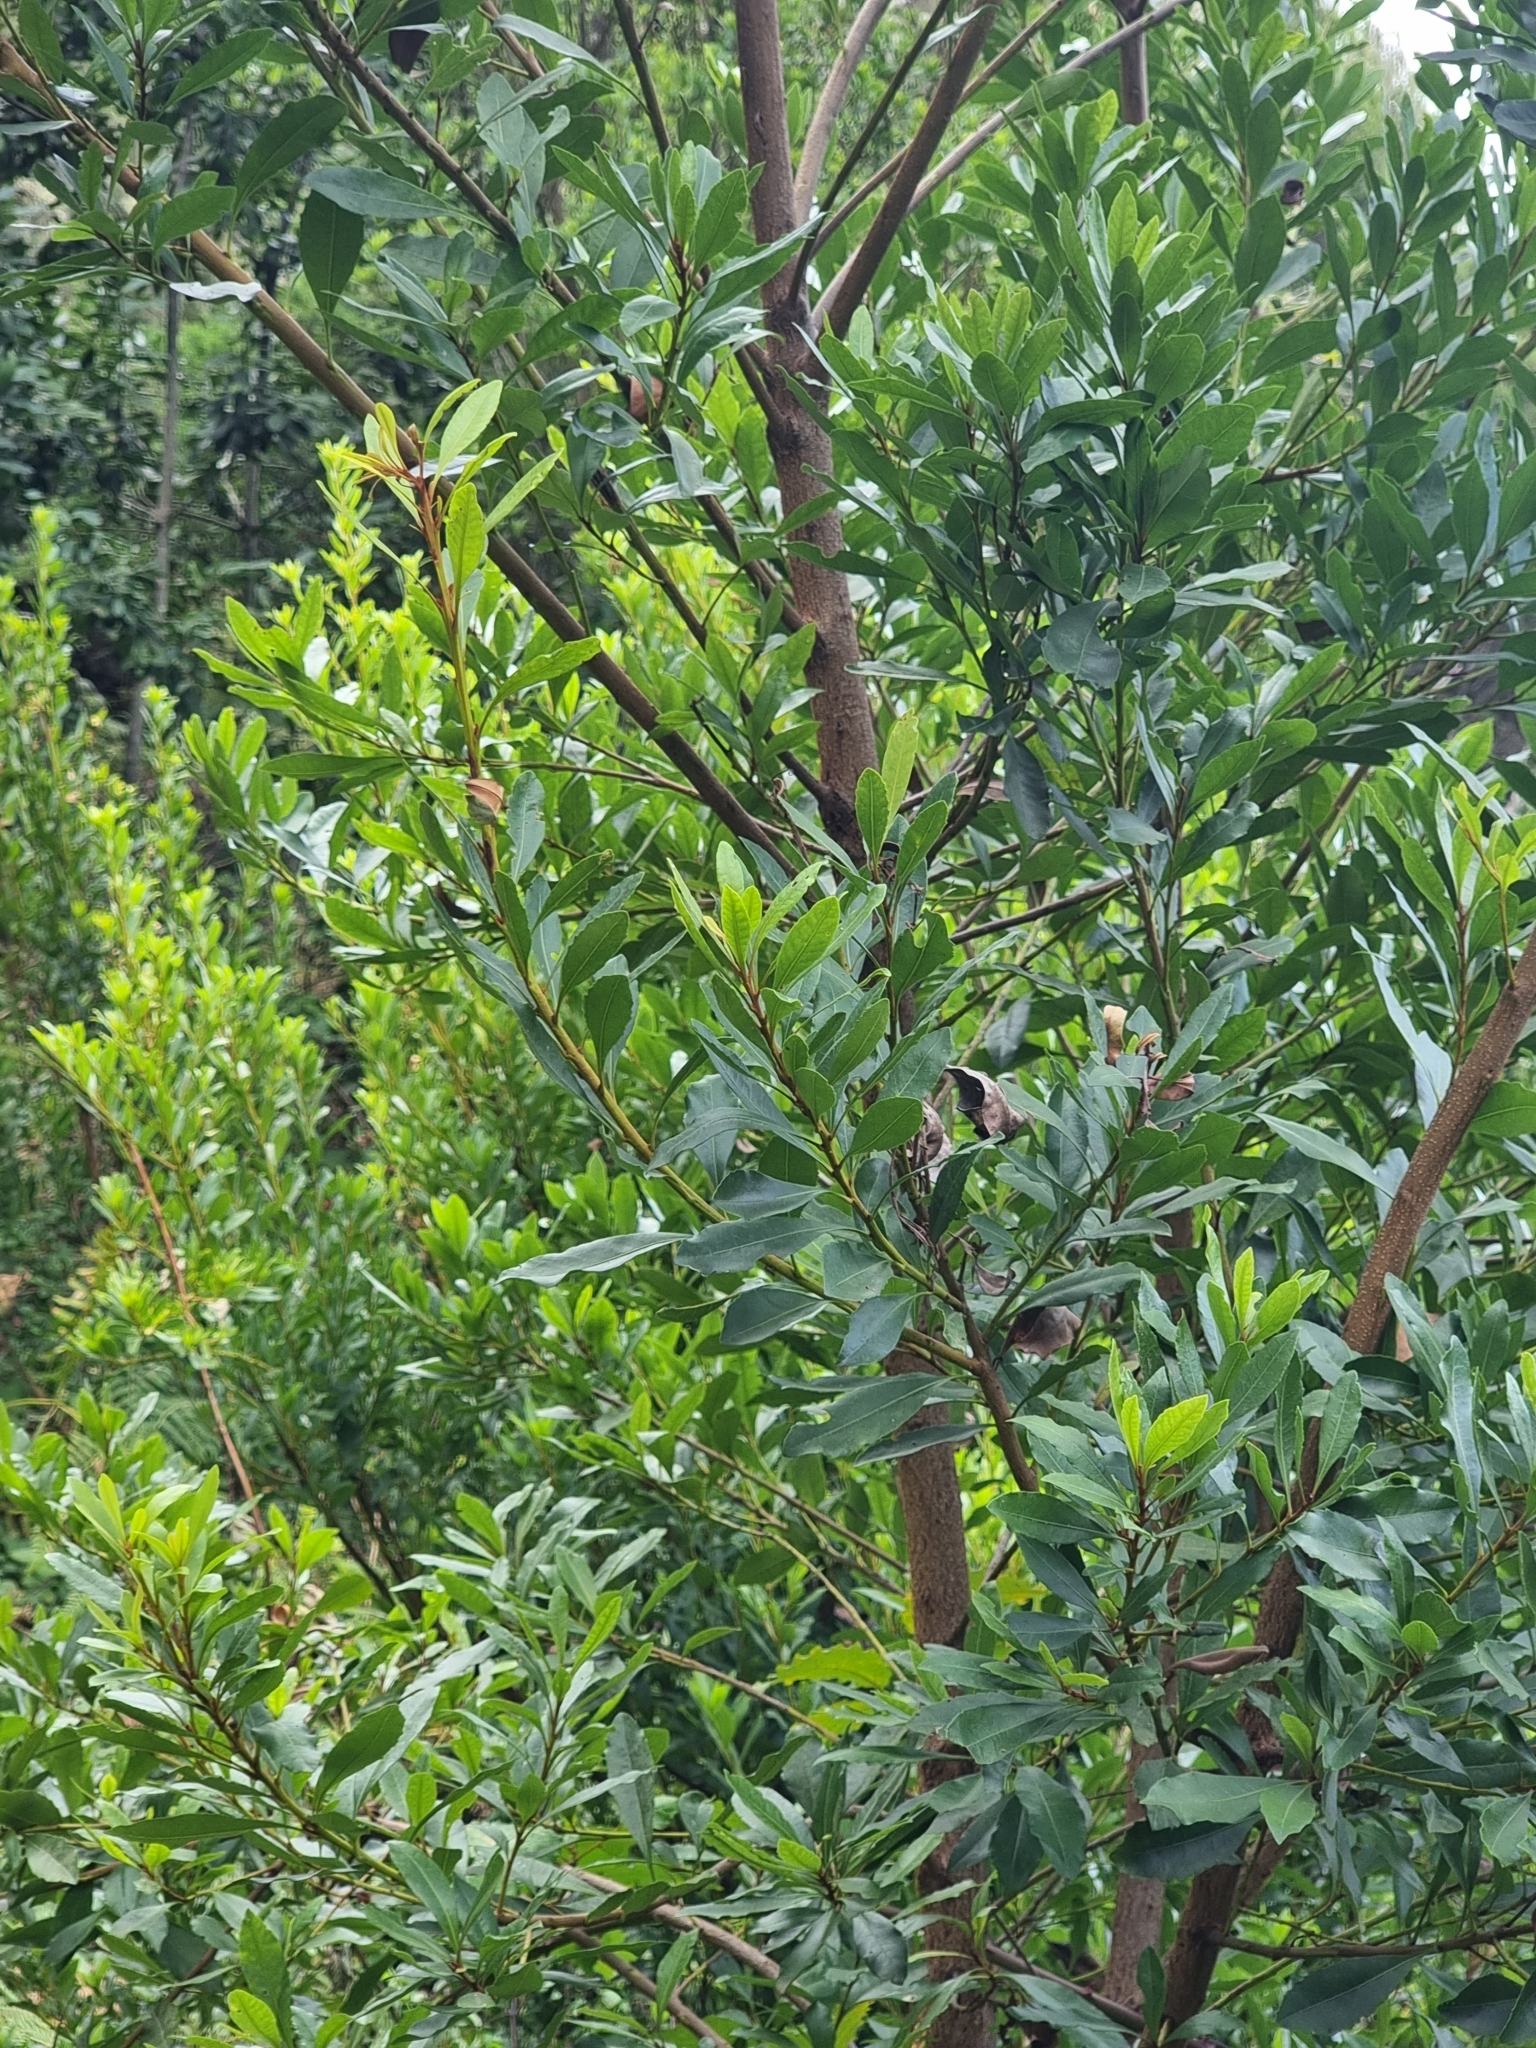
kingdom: Plantae
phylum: Tracheophyta
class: Magnoliopsida
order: Fagales
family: Myricaceae
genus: Morella
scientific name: Morella faya
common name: Firetree
